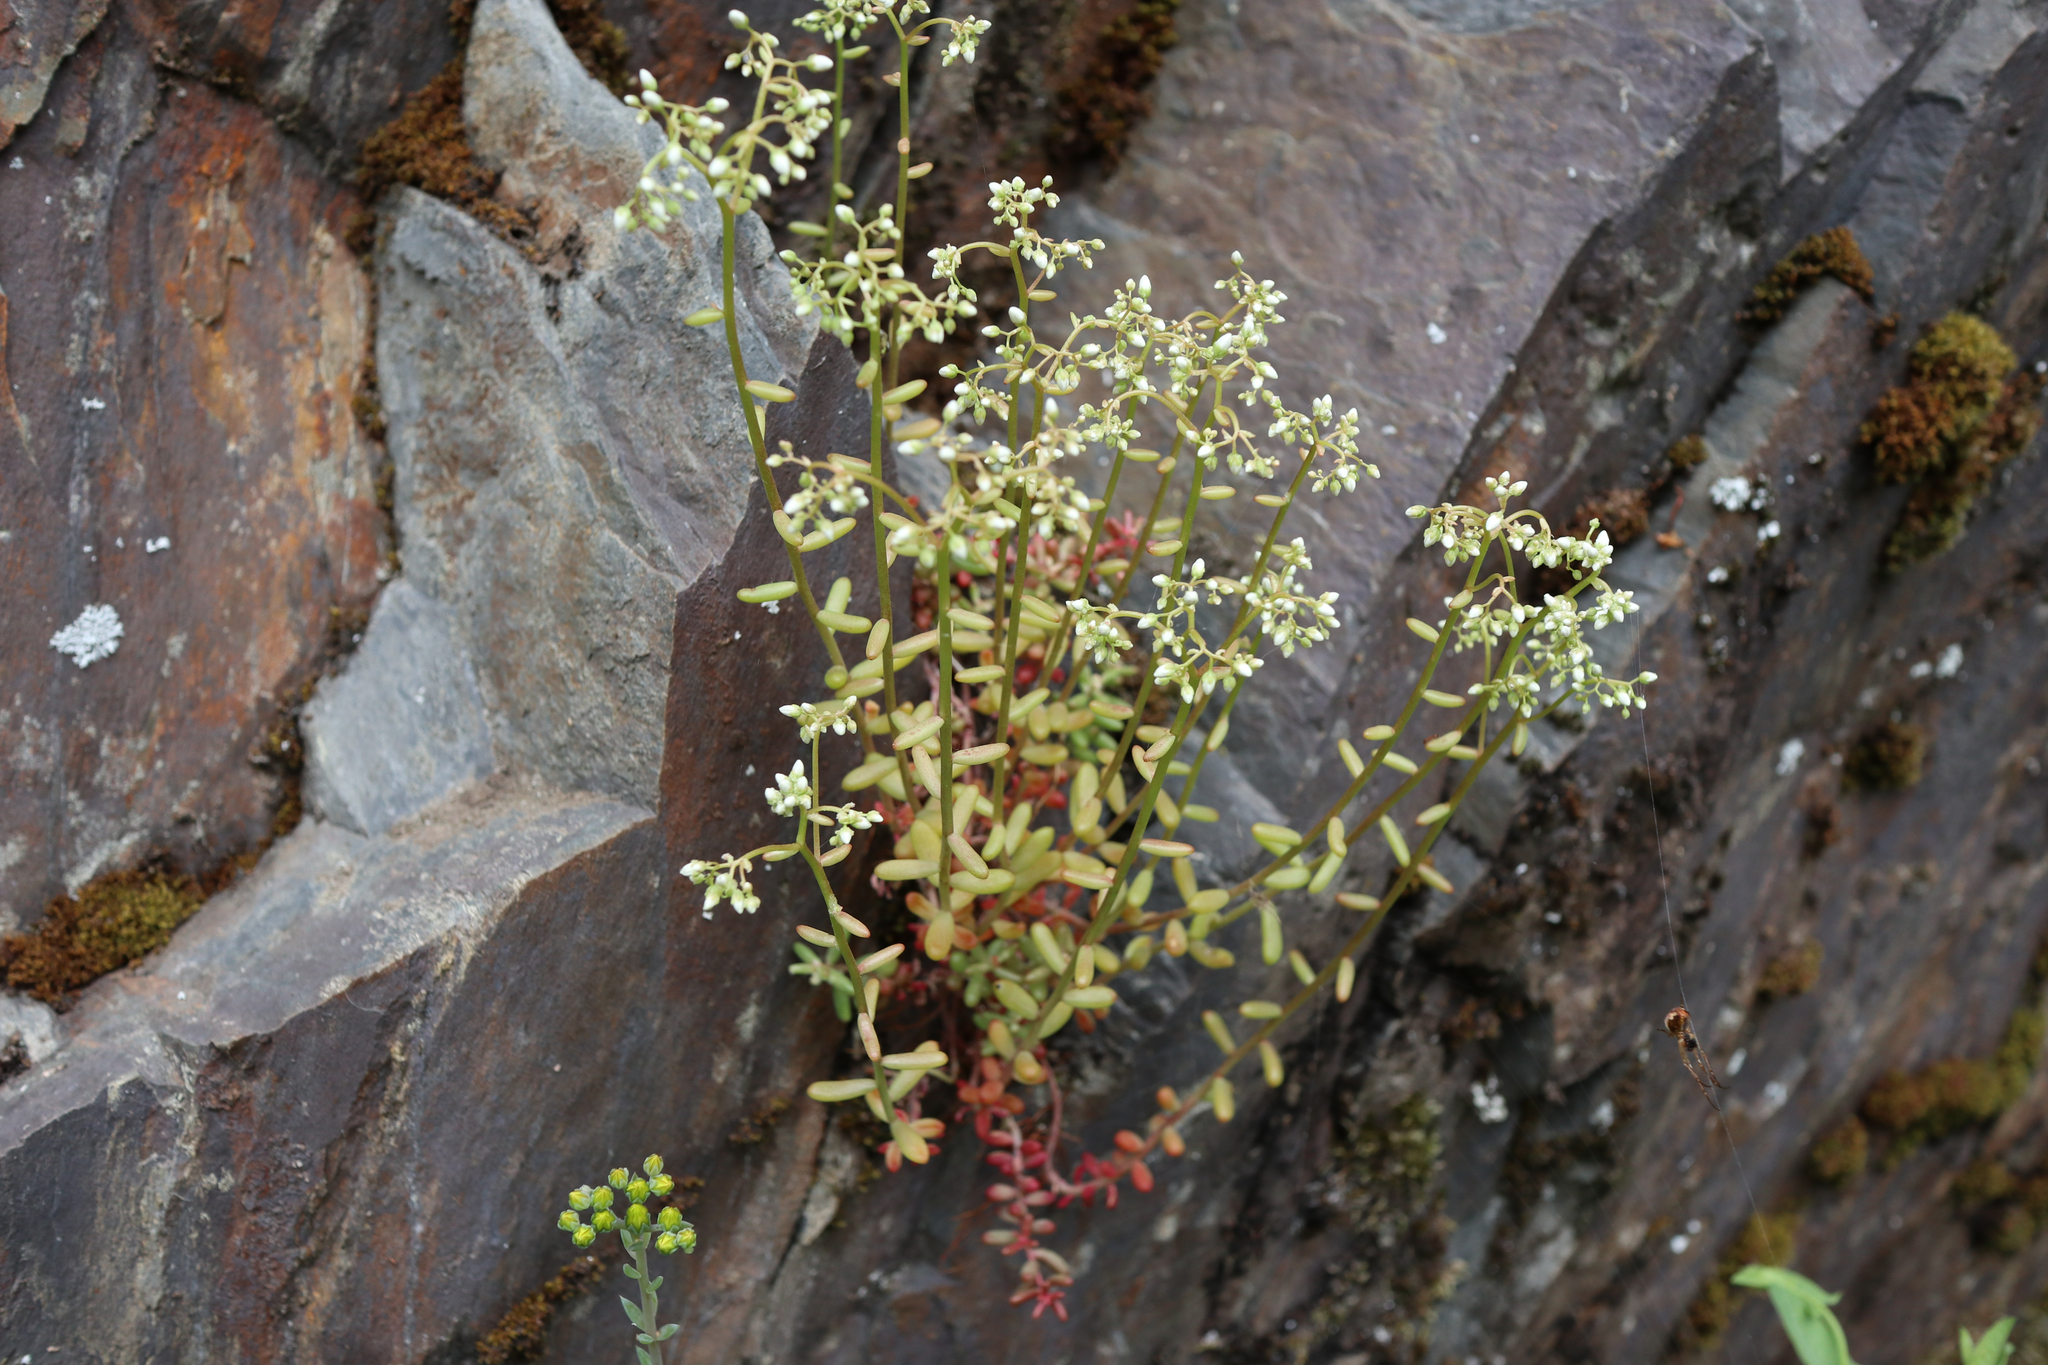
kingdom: Plantae
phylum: Tracheophyta
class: Magnoliopsida
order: Saxifragales
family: Crassulaceae
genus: Sedum
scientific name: Sedum album
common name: White stonecrop
